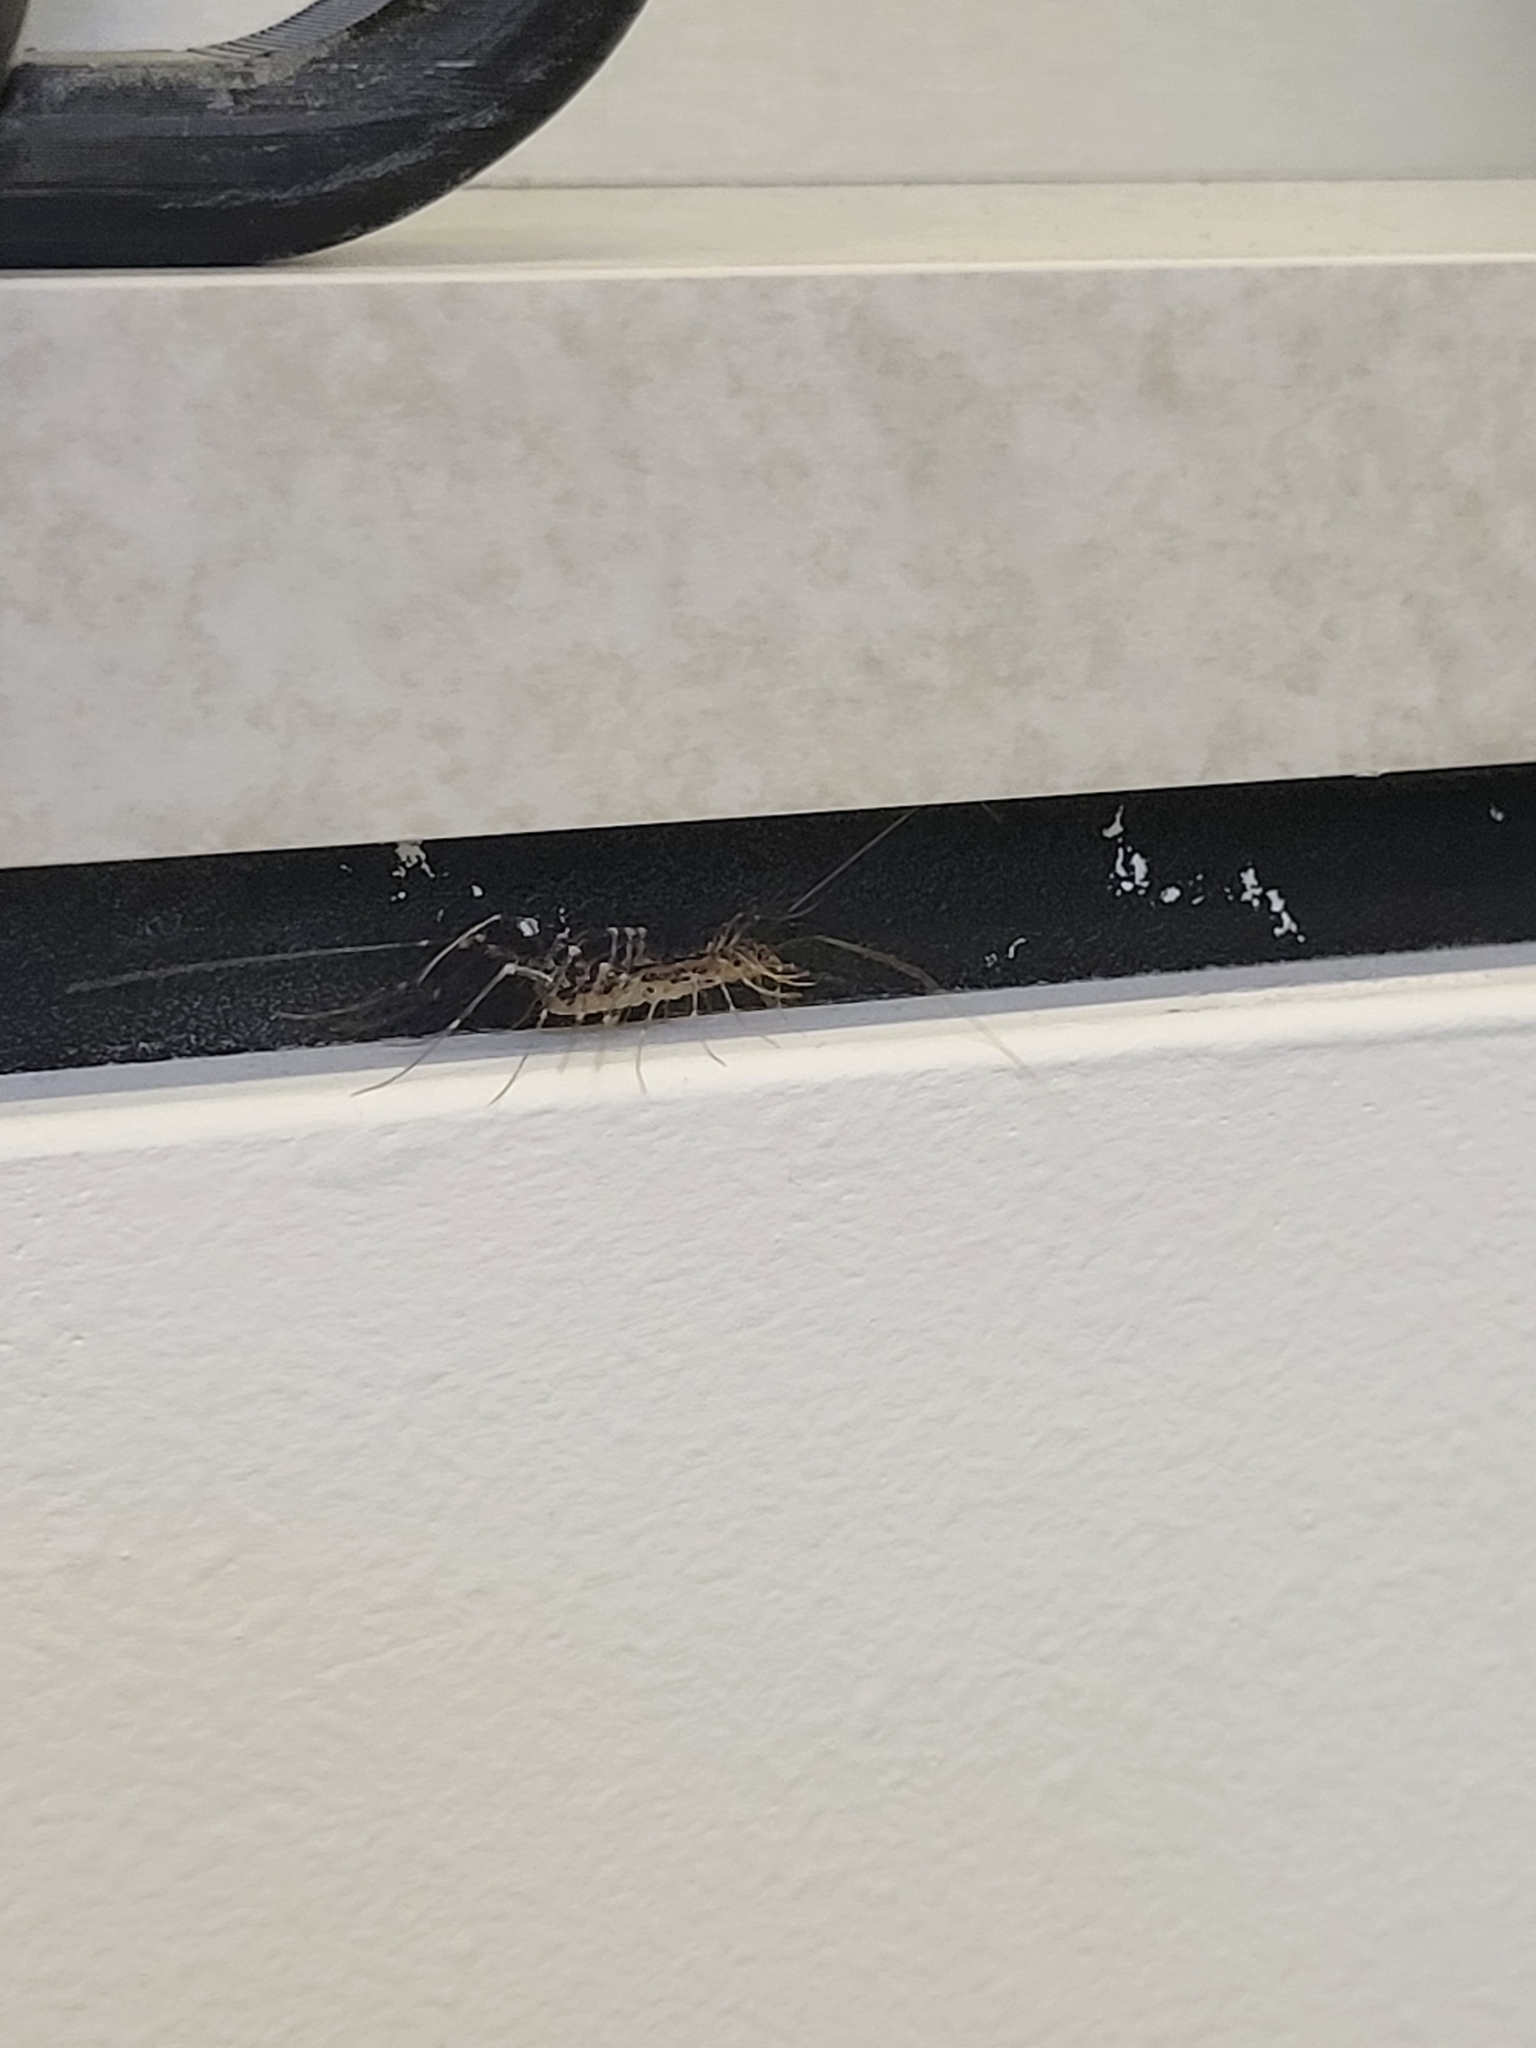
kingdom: Animalia
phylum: Arthropoda
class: Chilopoda
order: Scutigeromorpha
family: Scutigeridae
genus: Scutigera
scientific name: Scutigera coleoptrata
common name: House centipede
